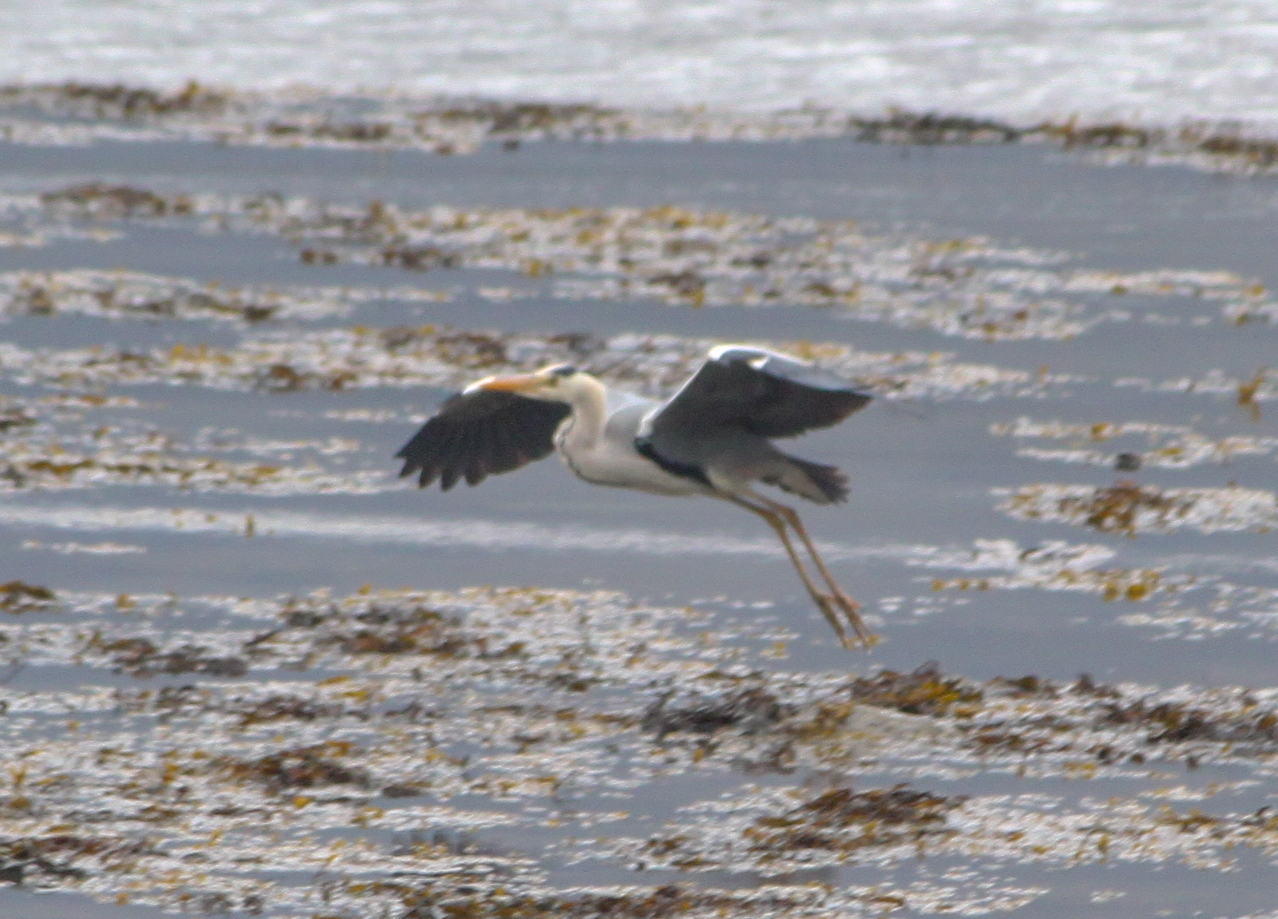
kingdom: Animalia
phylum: Chordata
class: Aves
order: Pelecaniformes
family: Ardeidae
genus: Ardea
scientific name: Ardea cinerea
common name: Grey heron
